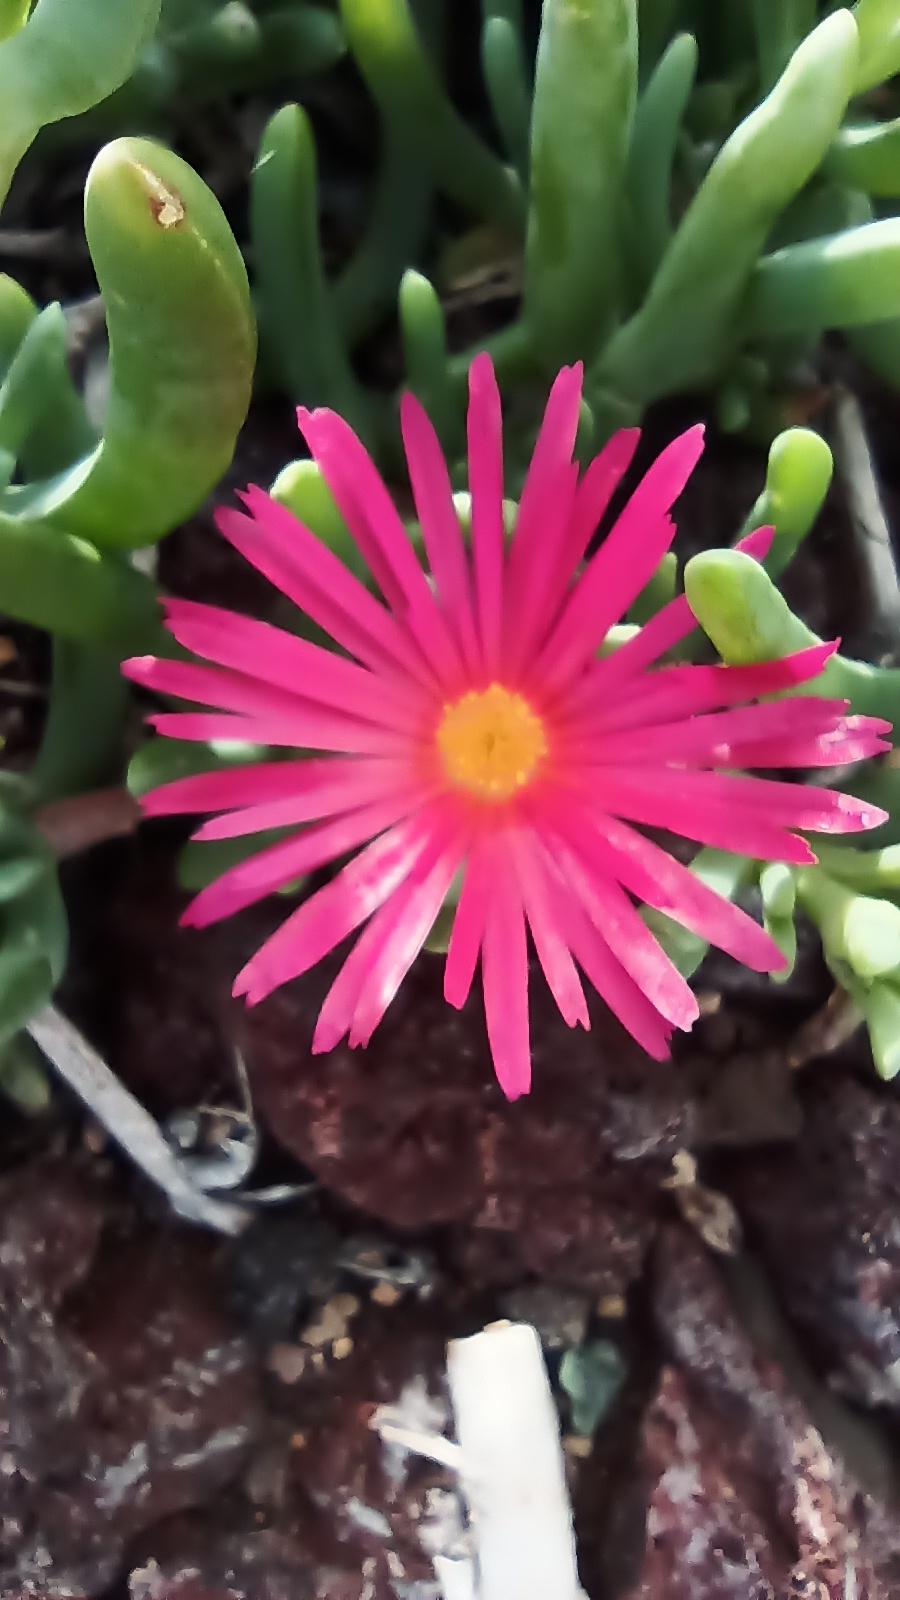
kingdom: Plantae
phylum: Tracheophyta
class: Magnoliopsida
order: Caryophyllales
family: Aizoaceae
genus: Malephora
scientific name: Malephora crocea
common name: Coppery mesemb
